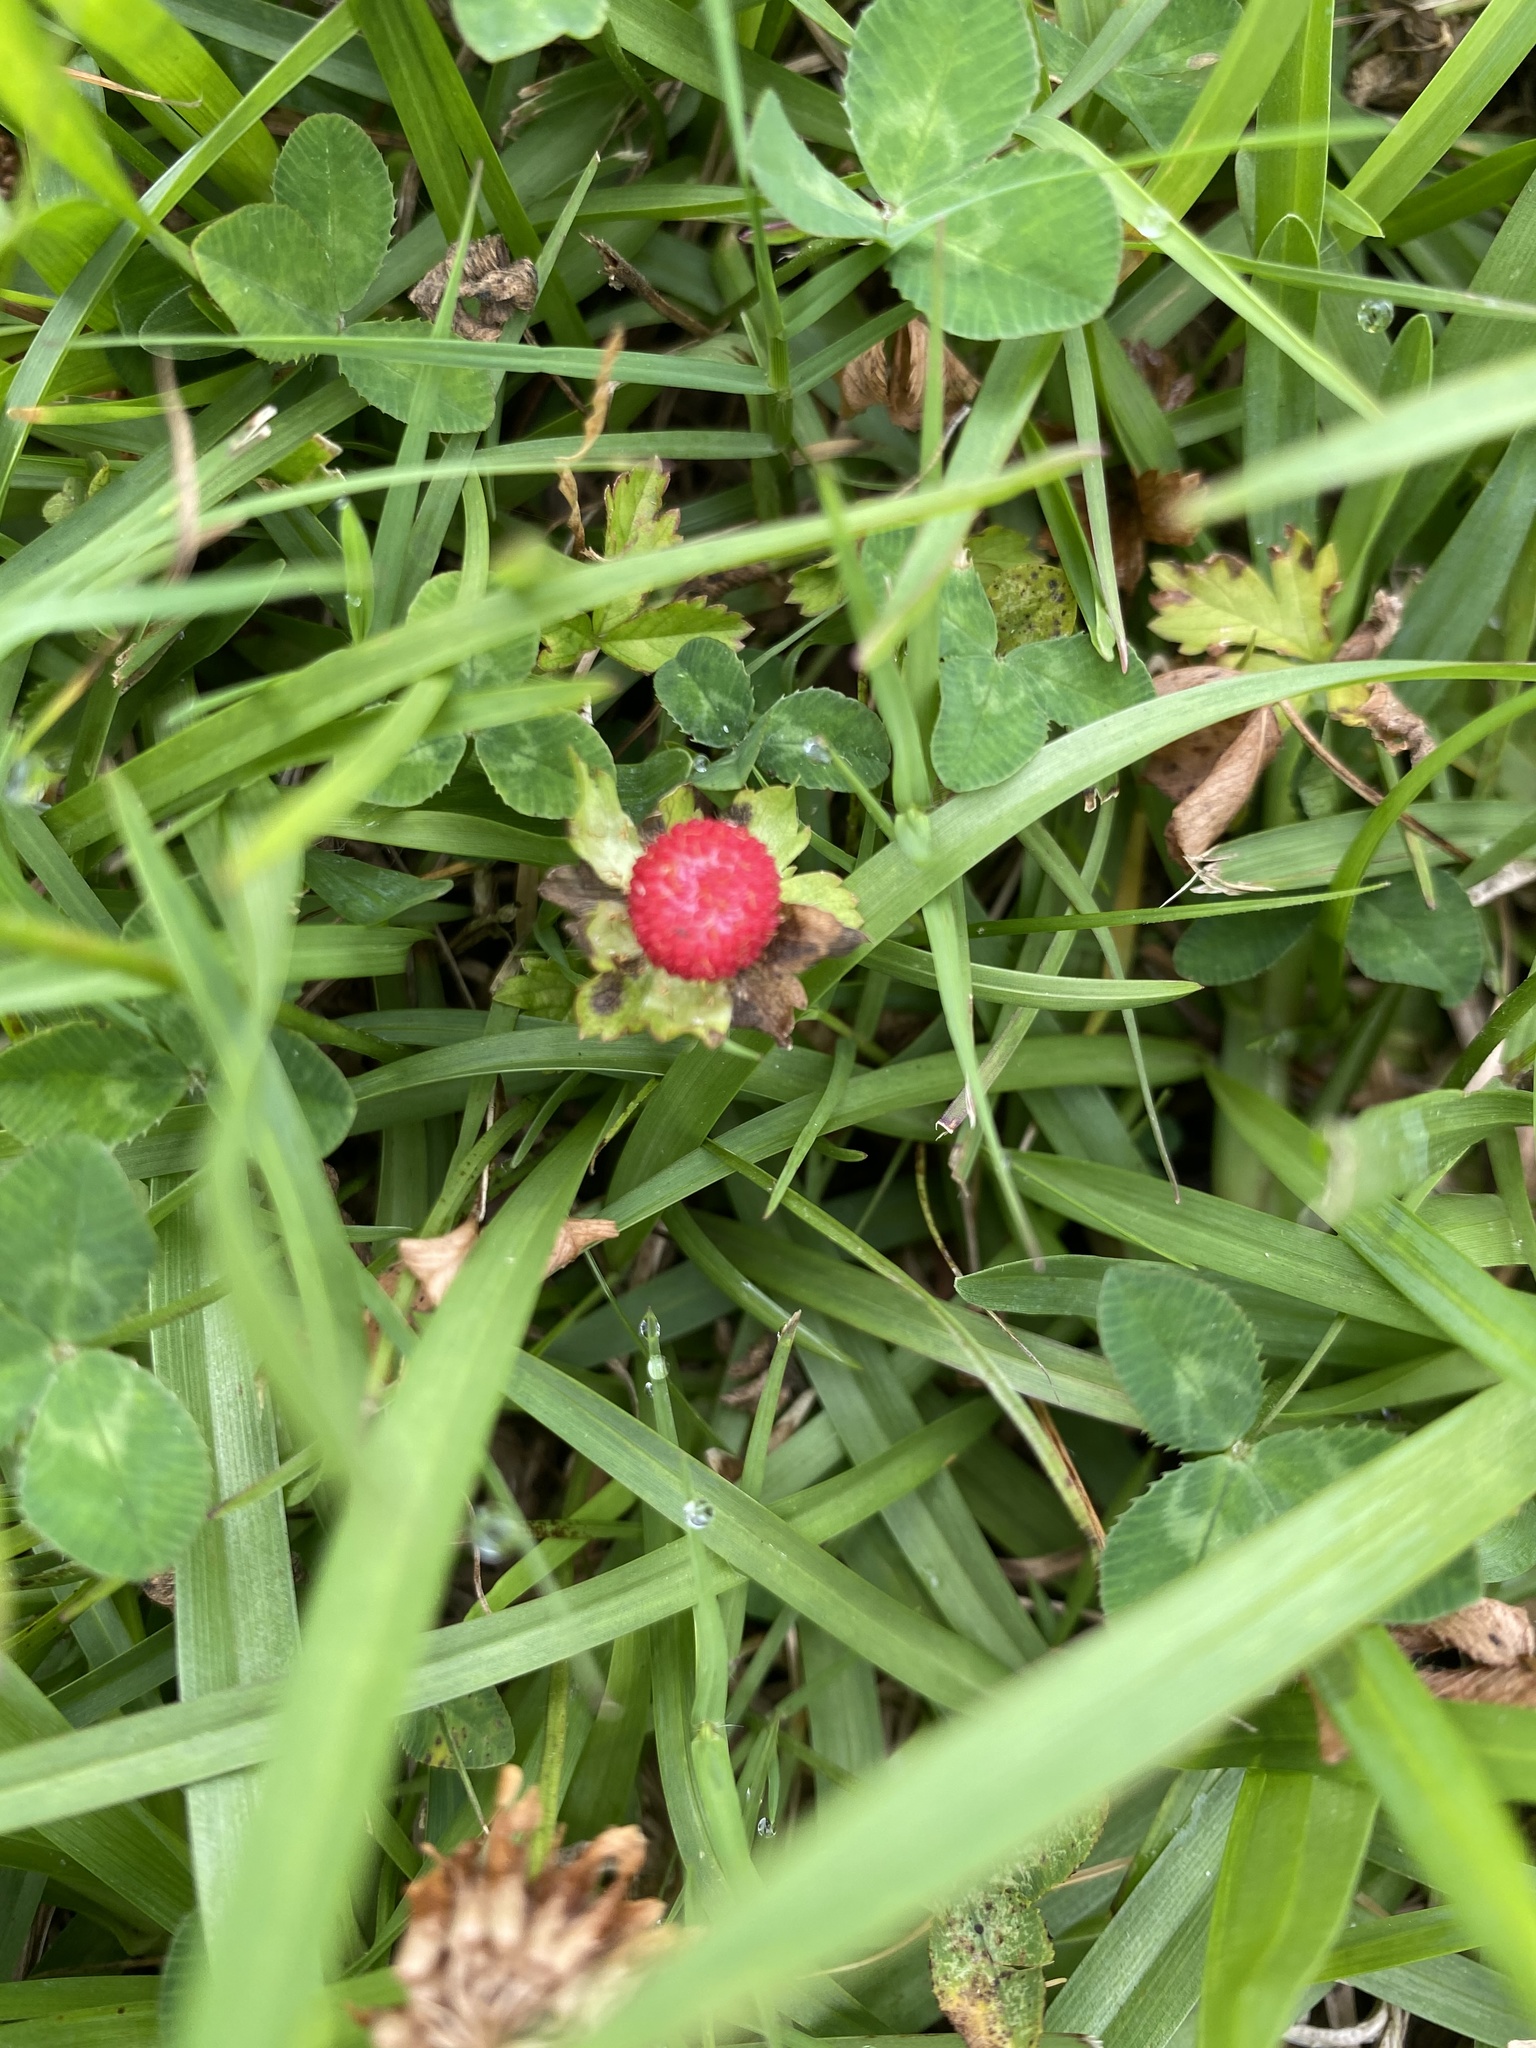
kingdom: Plantae
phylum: Tracheophyta
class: Magnoliopsida
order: Rosales
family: Rosaceae
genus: Potentilla
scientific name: Potentilla indica
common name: Yellow-flowered strawberry
